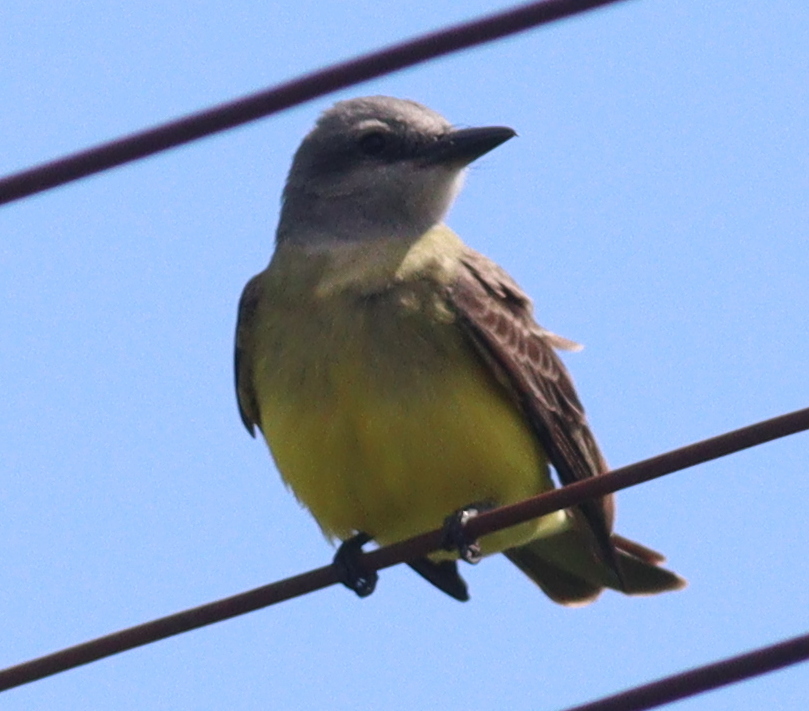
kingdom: Animalia
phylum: Chordata
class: Aves
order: Passeriformes
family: Tyrannidae
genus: Tyrannus
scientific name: Tyrannus melancholicus
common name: Tropical kingbird
